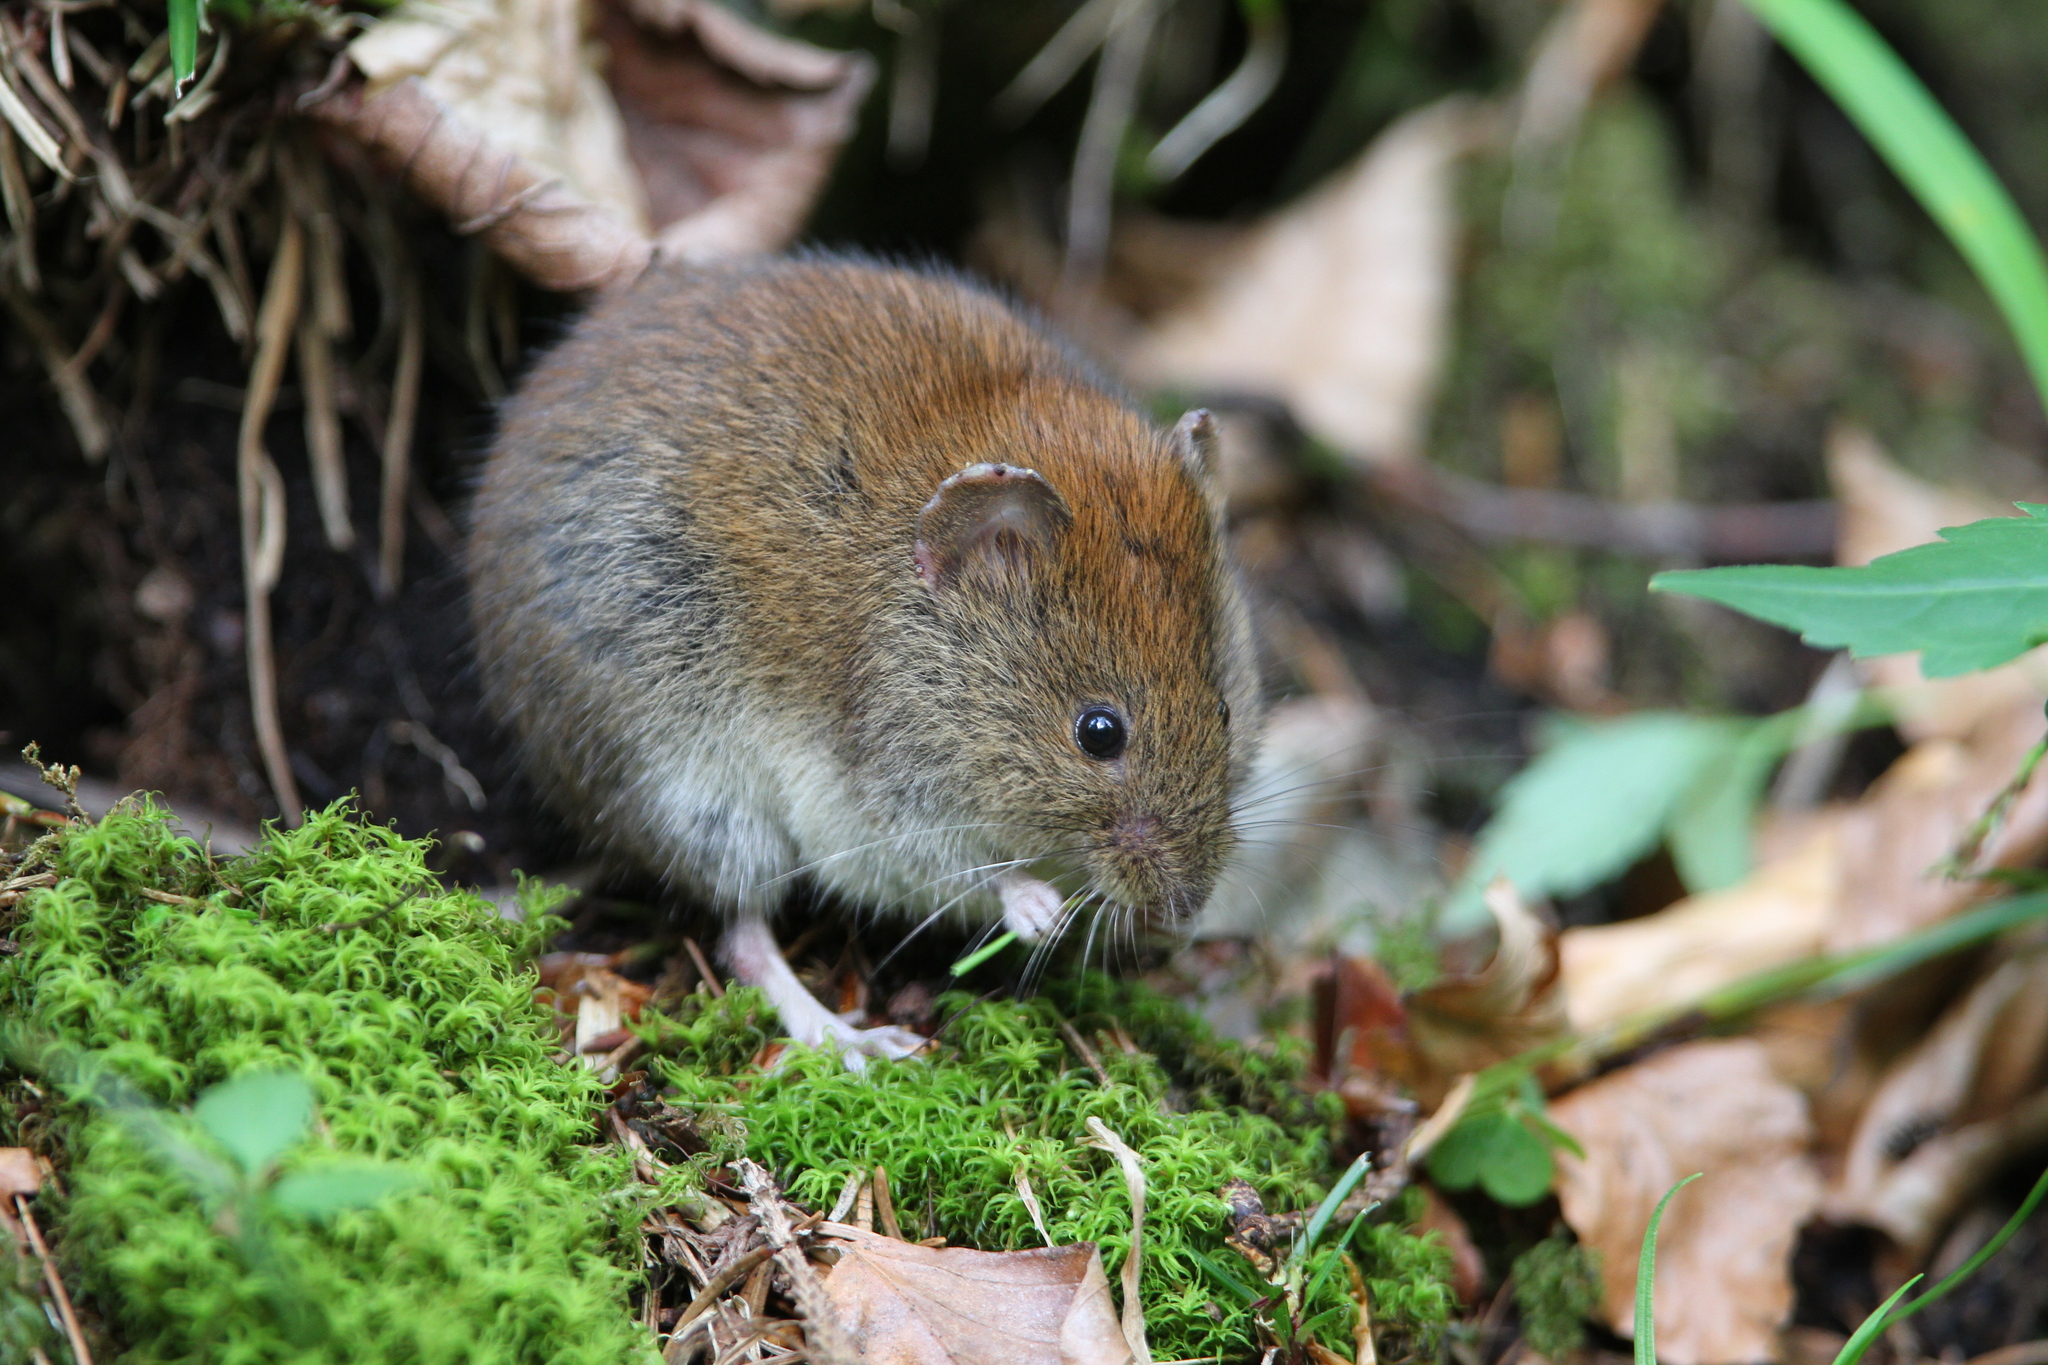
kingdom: Animalia
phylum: Chordata
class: Mammalia
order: Rodentia
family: Cricetidae
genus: Myodes
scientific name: Myodes glareolus
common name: Bank vole
